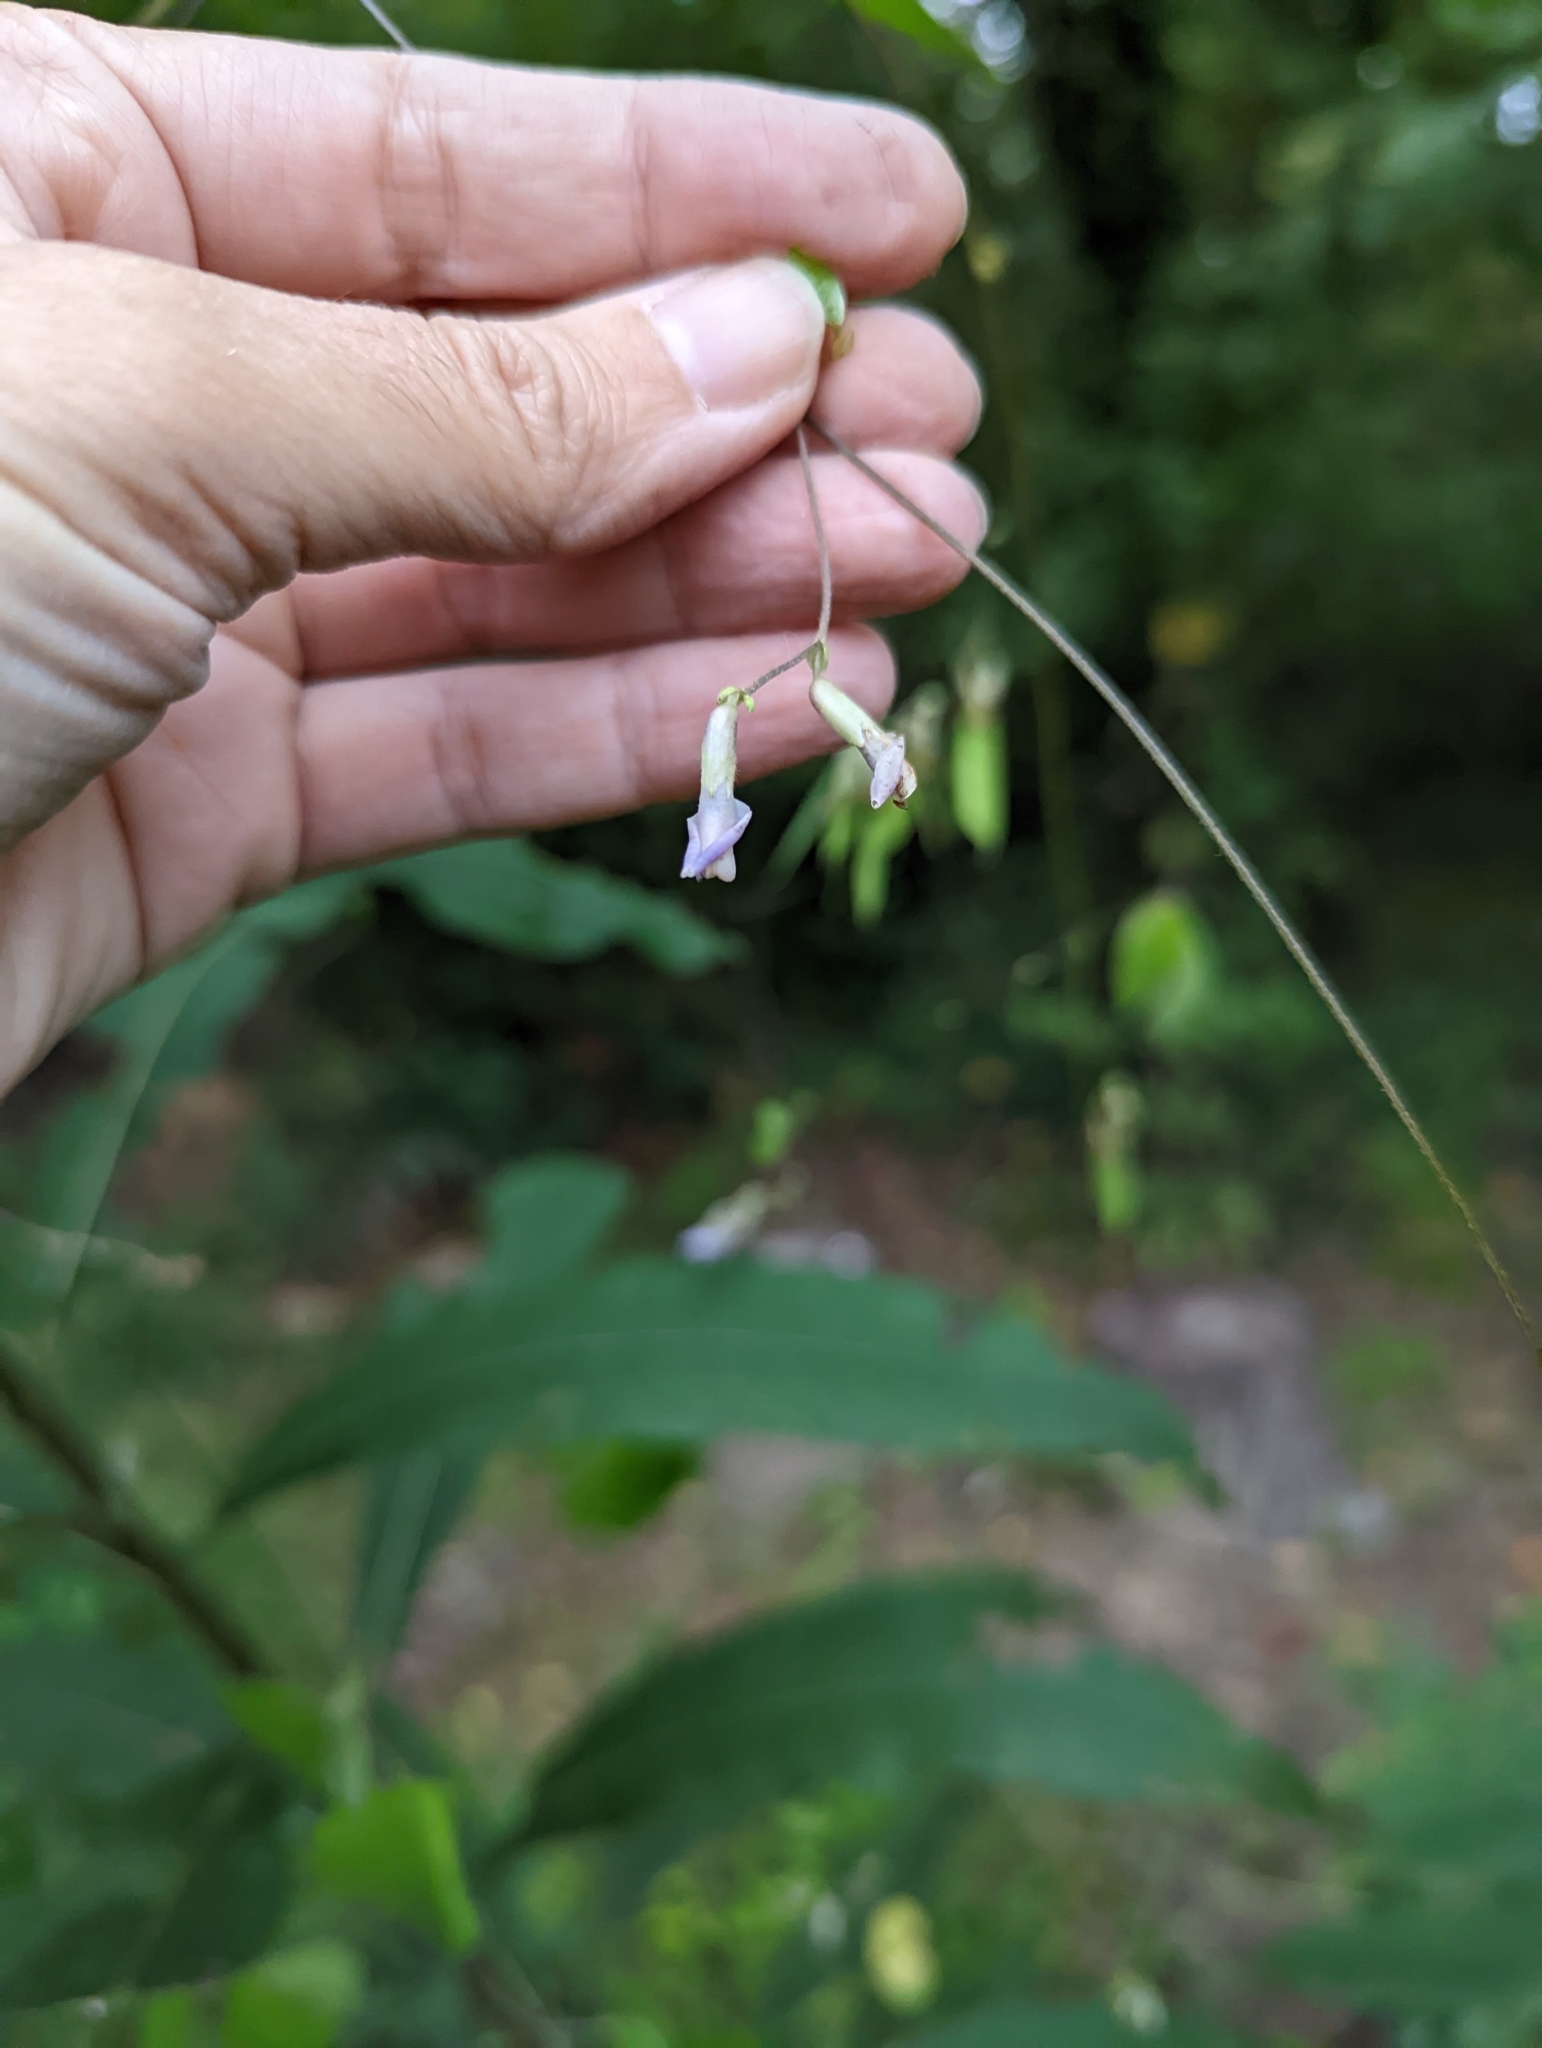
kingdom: Plantae
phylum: Tracheophyta
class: Magnoliopsida
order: Fabales
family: Fabaceae
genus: Amphicarpaea
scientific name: Amphicarpaea bracteata
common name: American hog peanut
